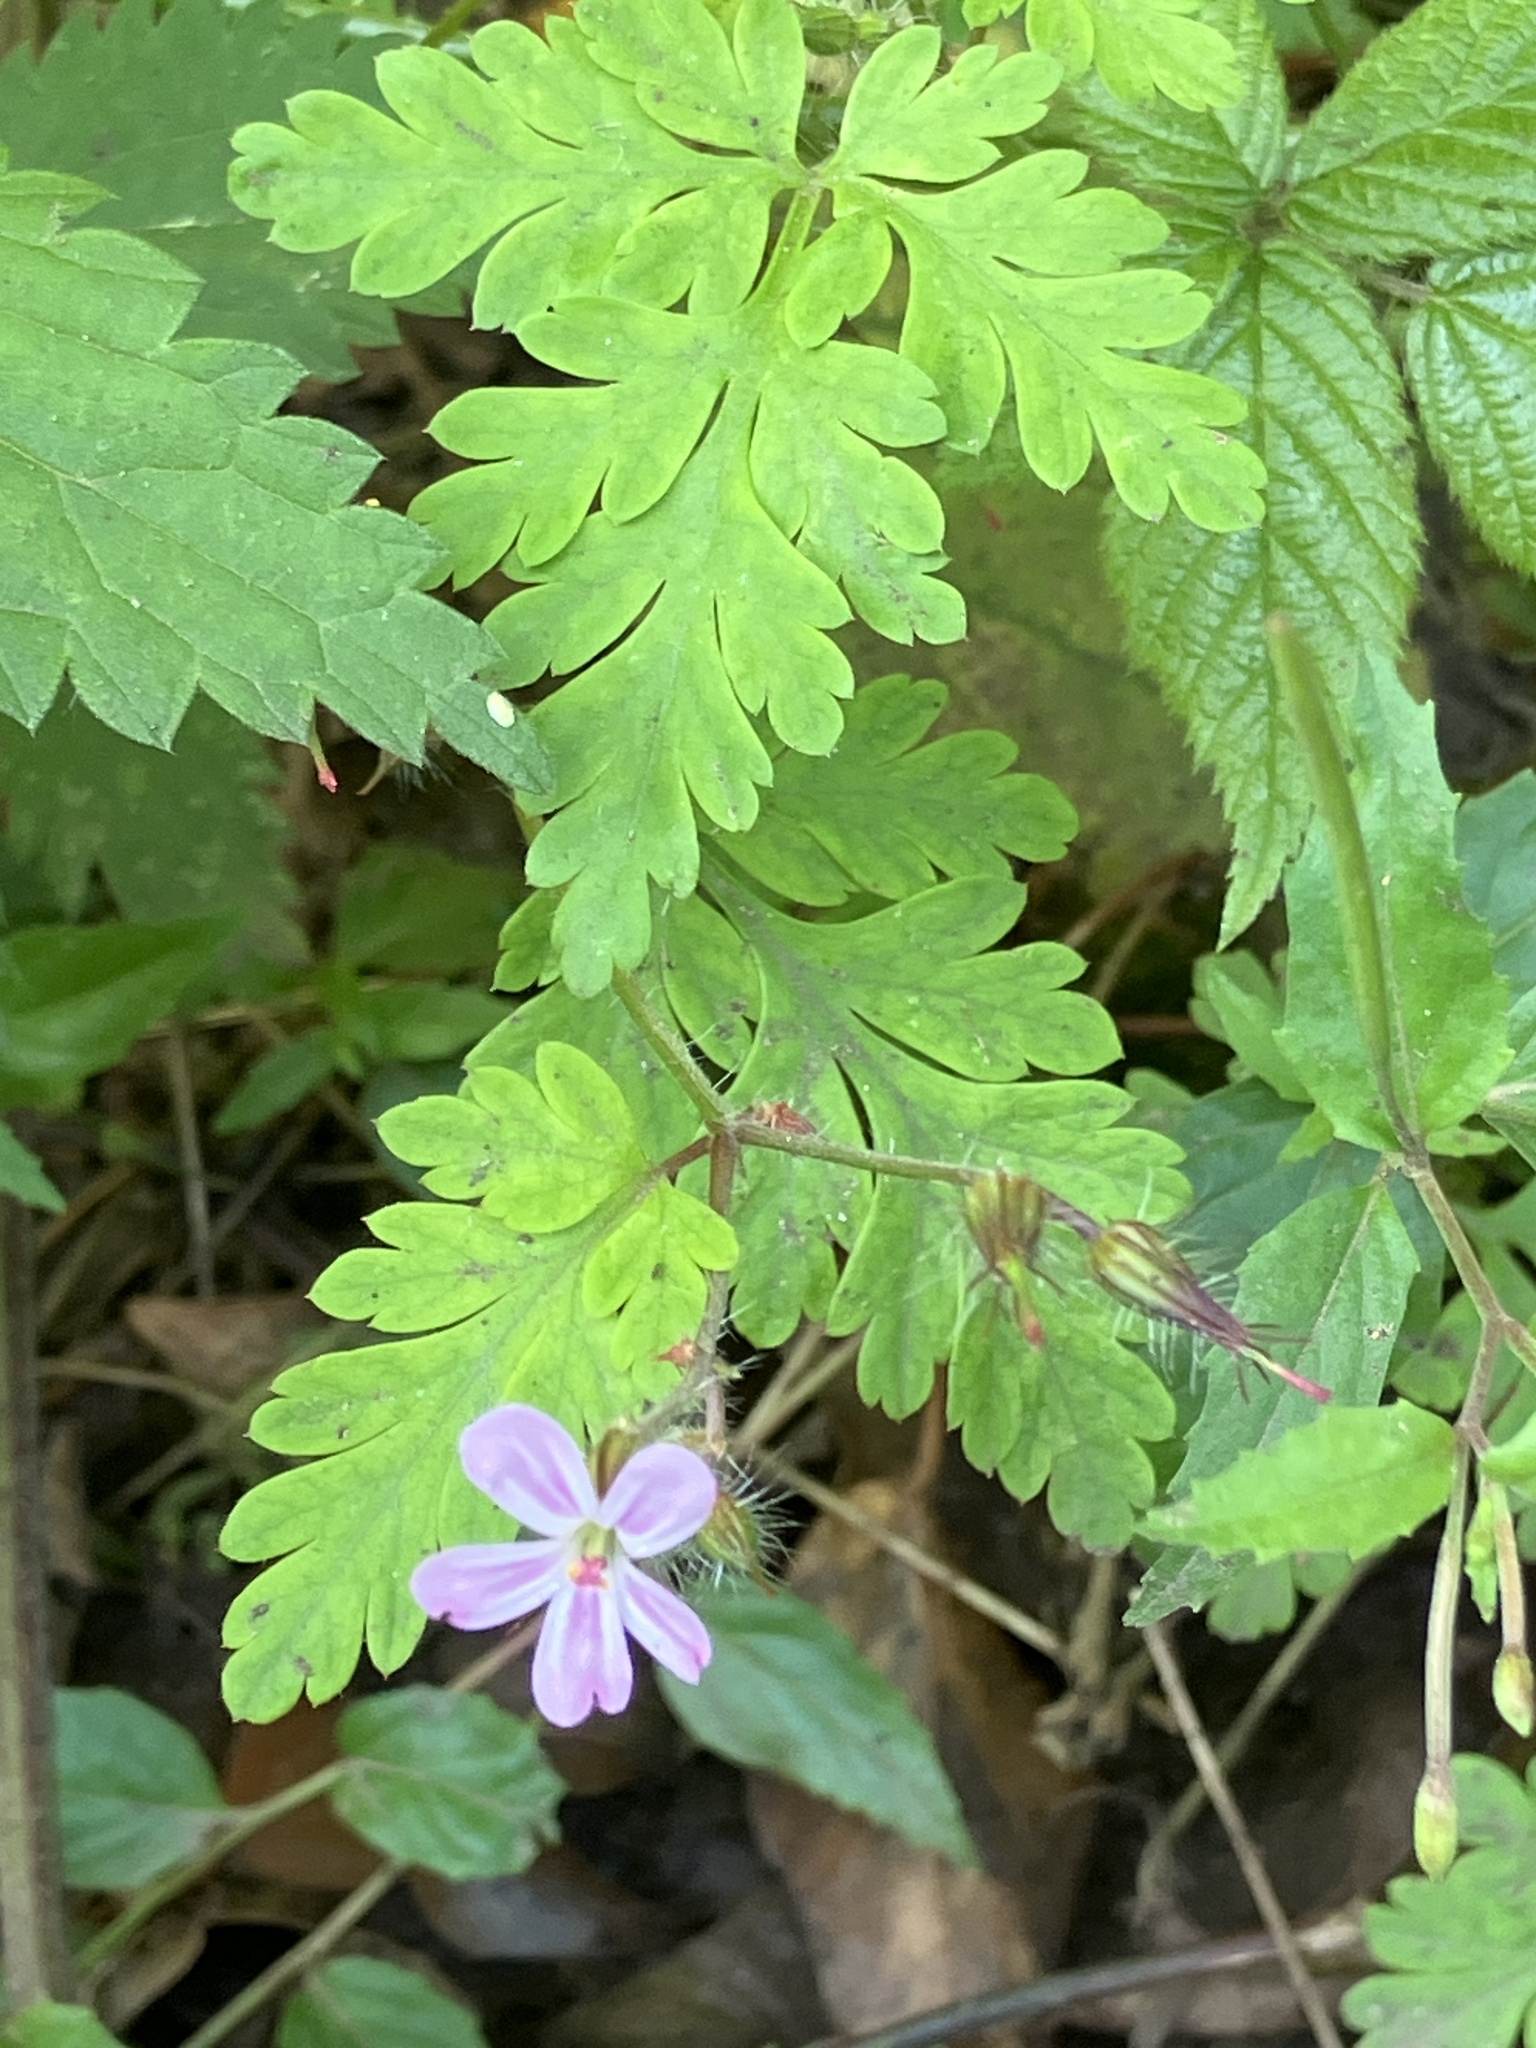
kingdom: Plantae
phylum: Tracheophyta
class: Magnoliopsida
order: Geraniales
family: Geraniaceae
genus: Geranium
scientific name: Geranium robertianum
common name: Herb-robert
